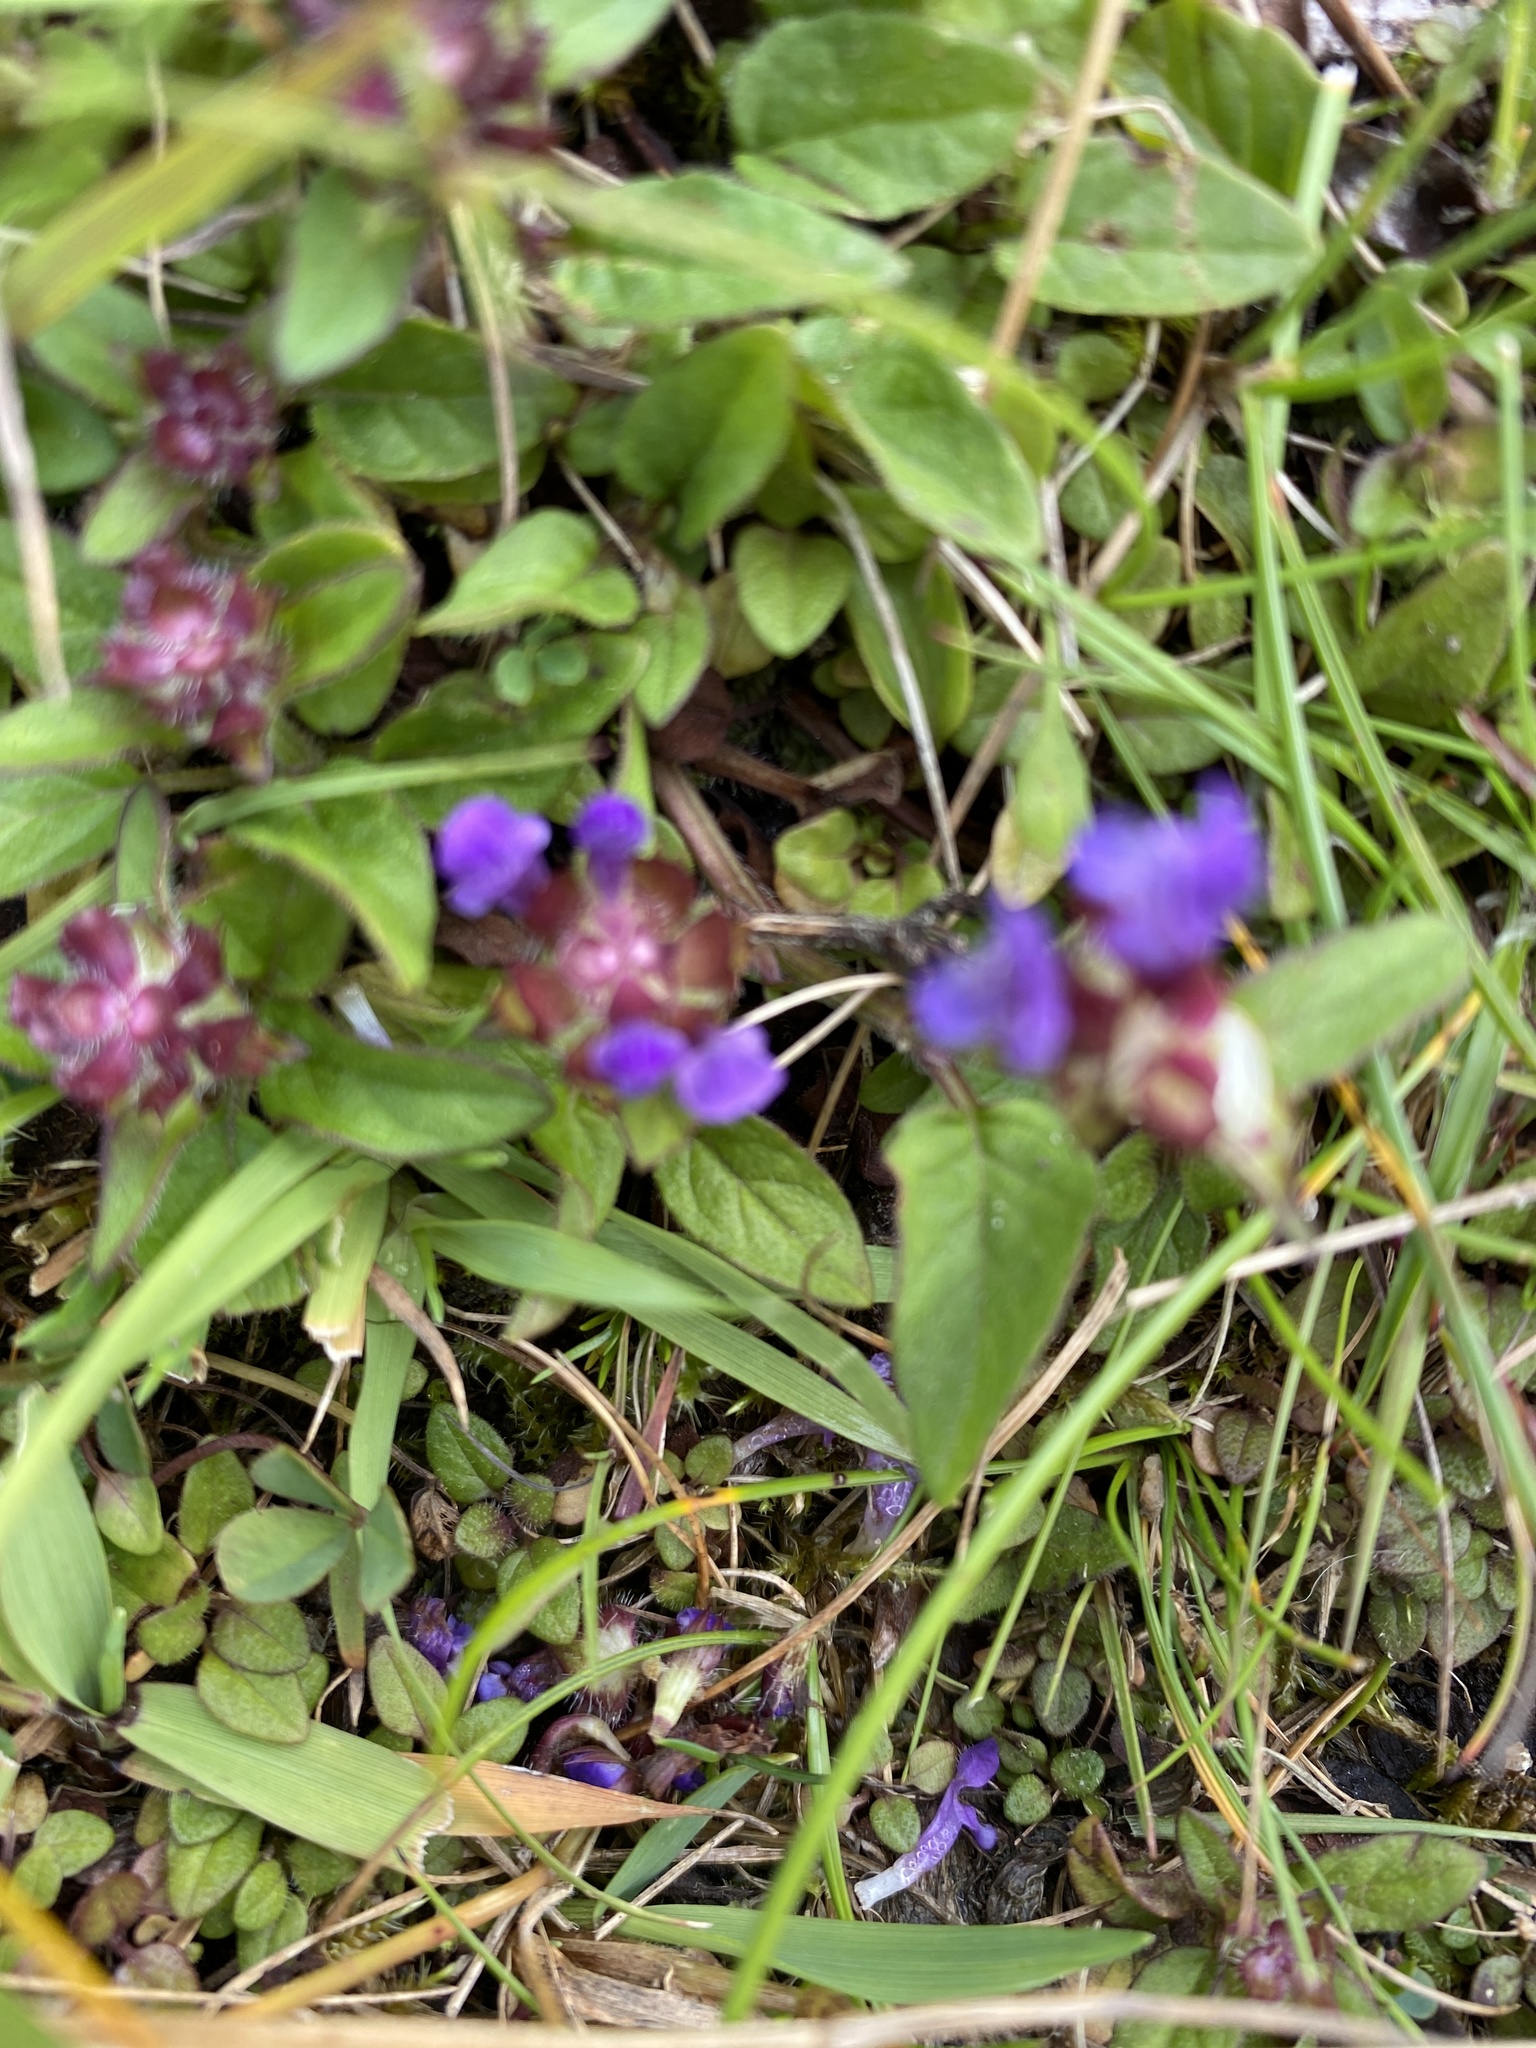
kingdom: Plantae
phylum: Tracheophyta
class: Magnoliopsida
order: Lamiales
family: Lamiaceae
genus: Prunella
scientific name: Prunella vulgaris
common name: Heal-all
